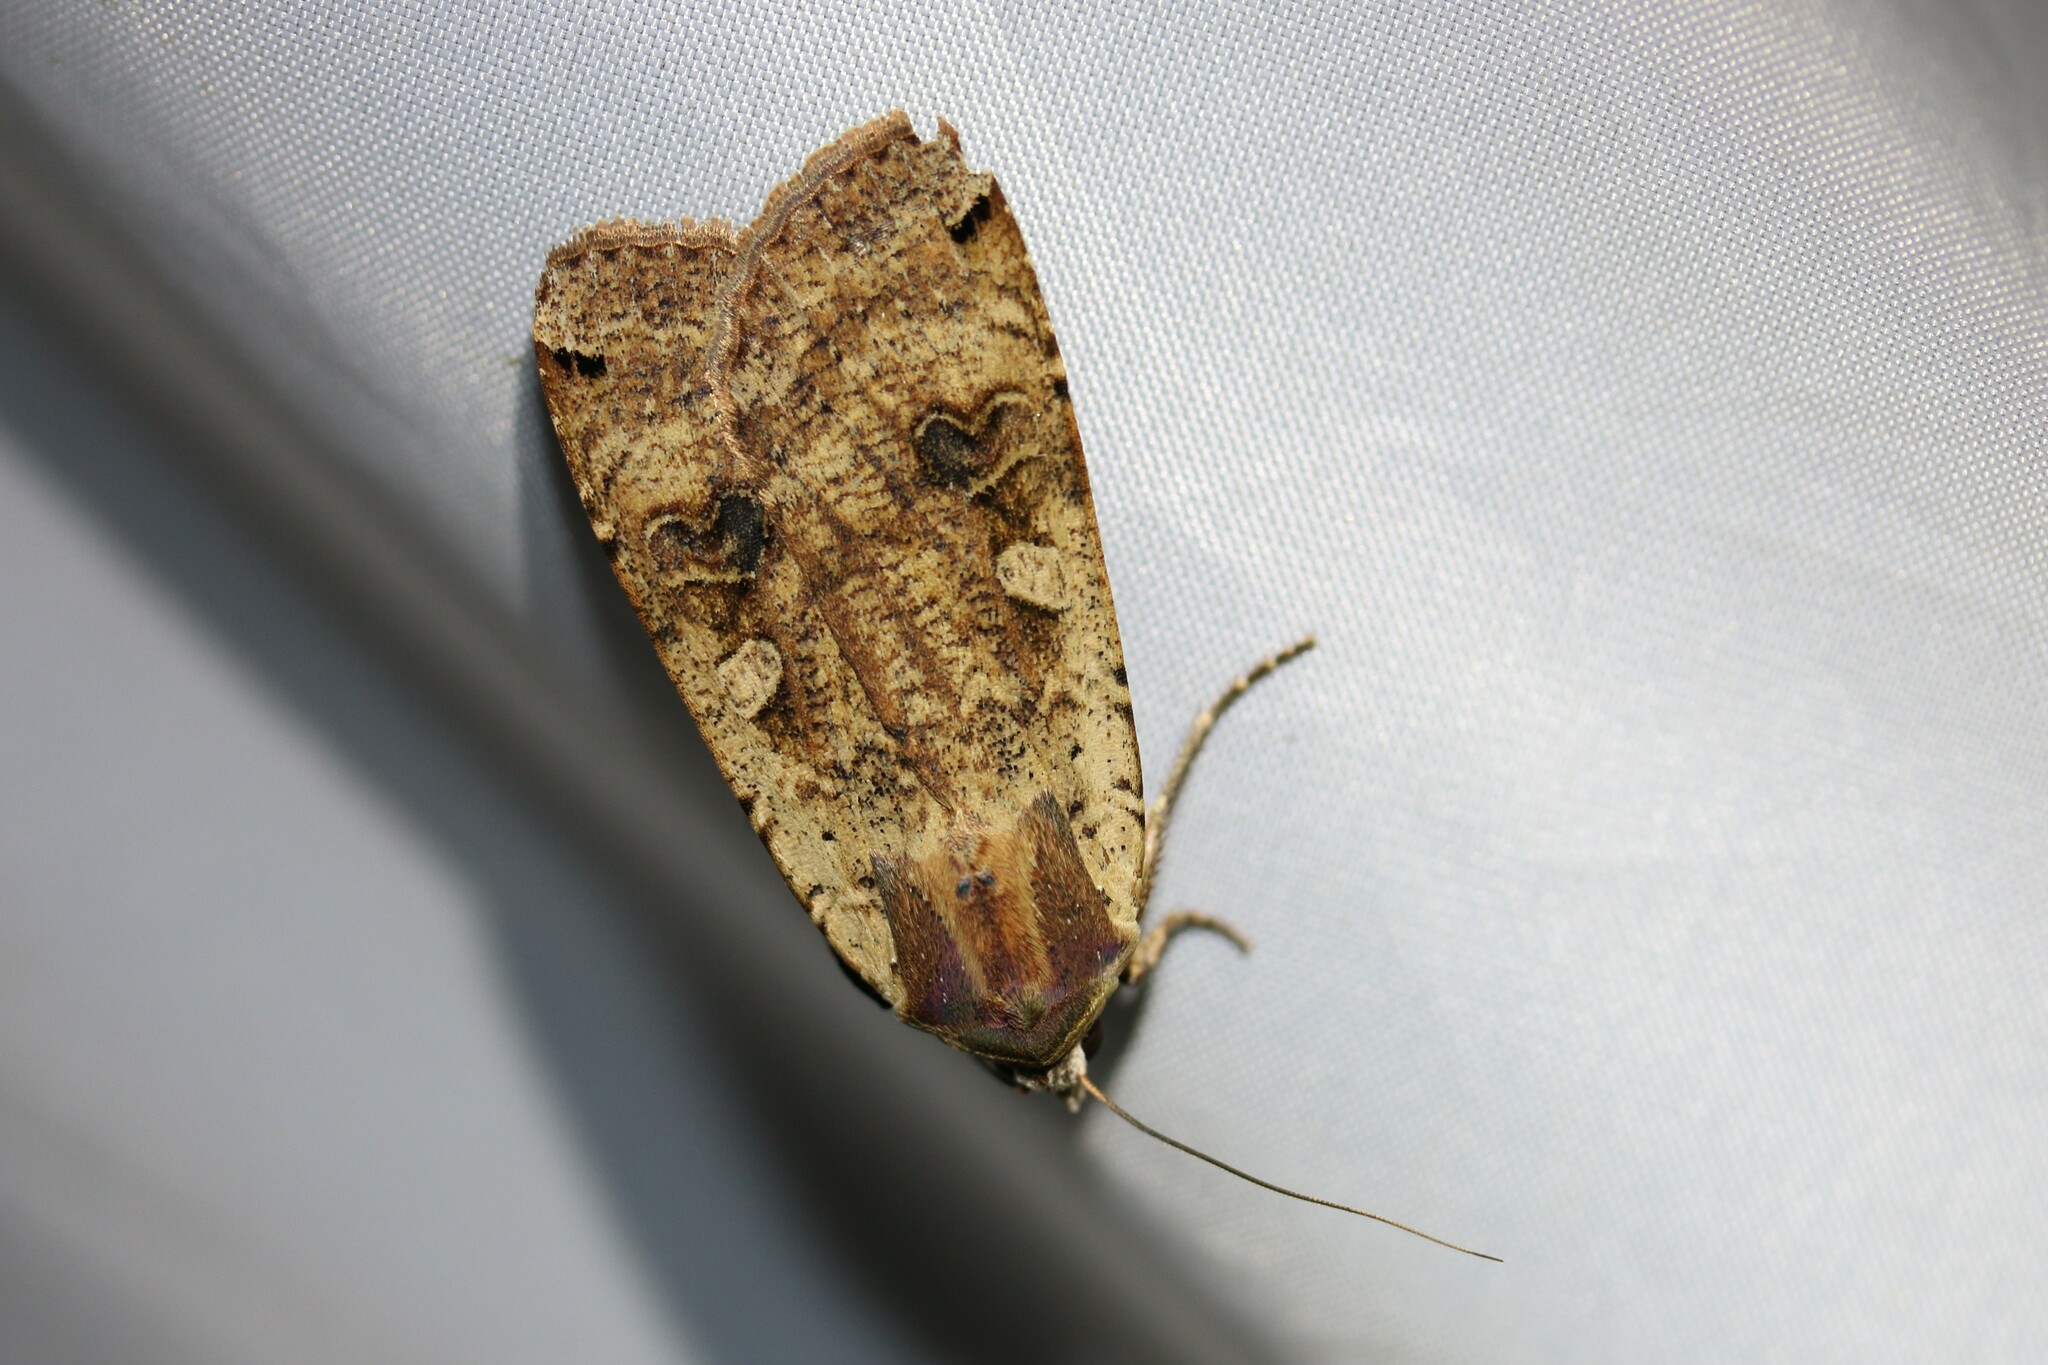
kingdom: Animalia
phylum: Arthropoda
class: Insecta
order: Lepidoptera
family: Noctuidae
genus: Noctua
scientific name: Noctua pronuba
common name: Large yellow underwing
